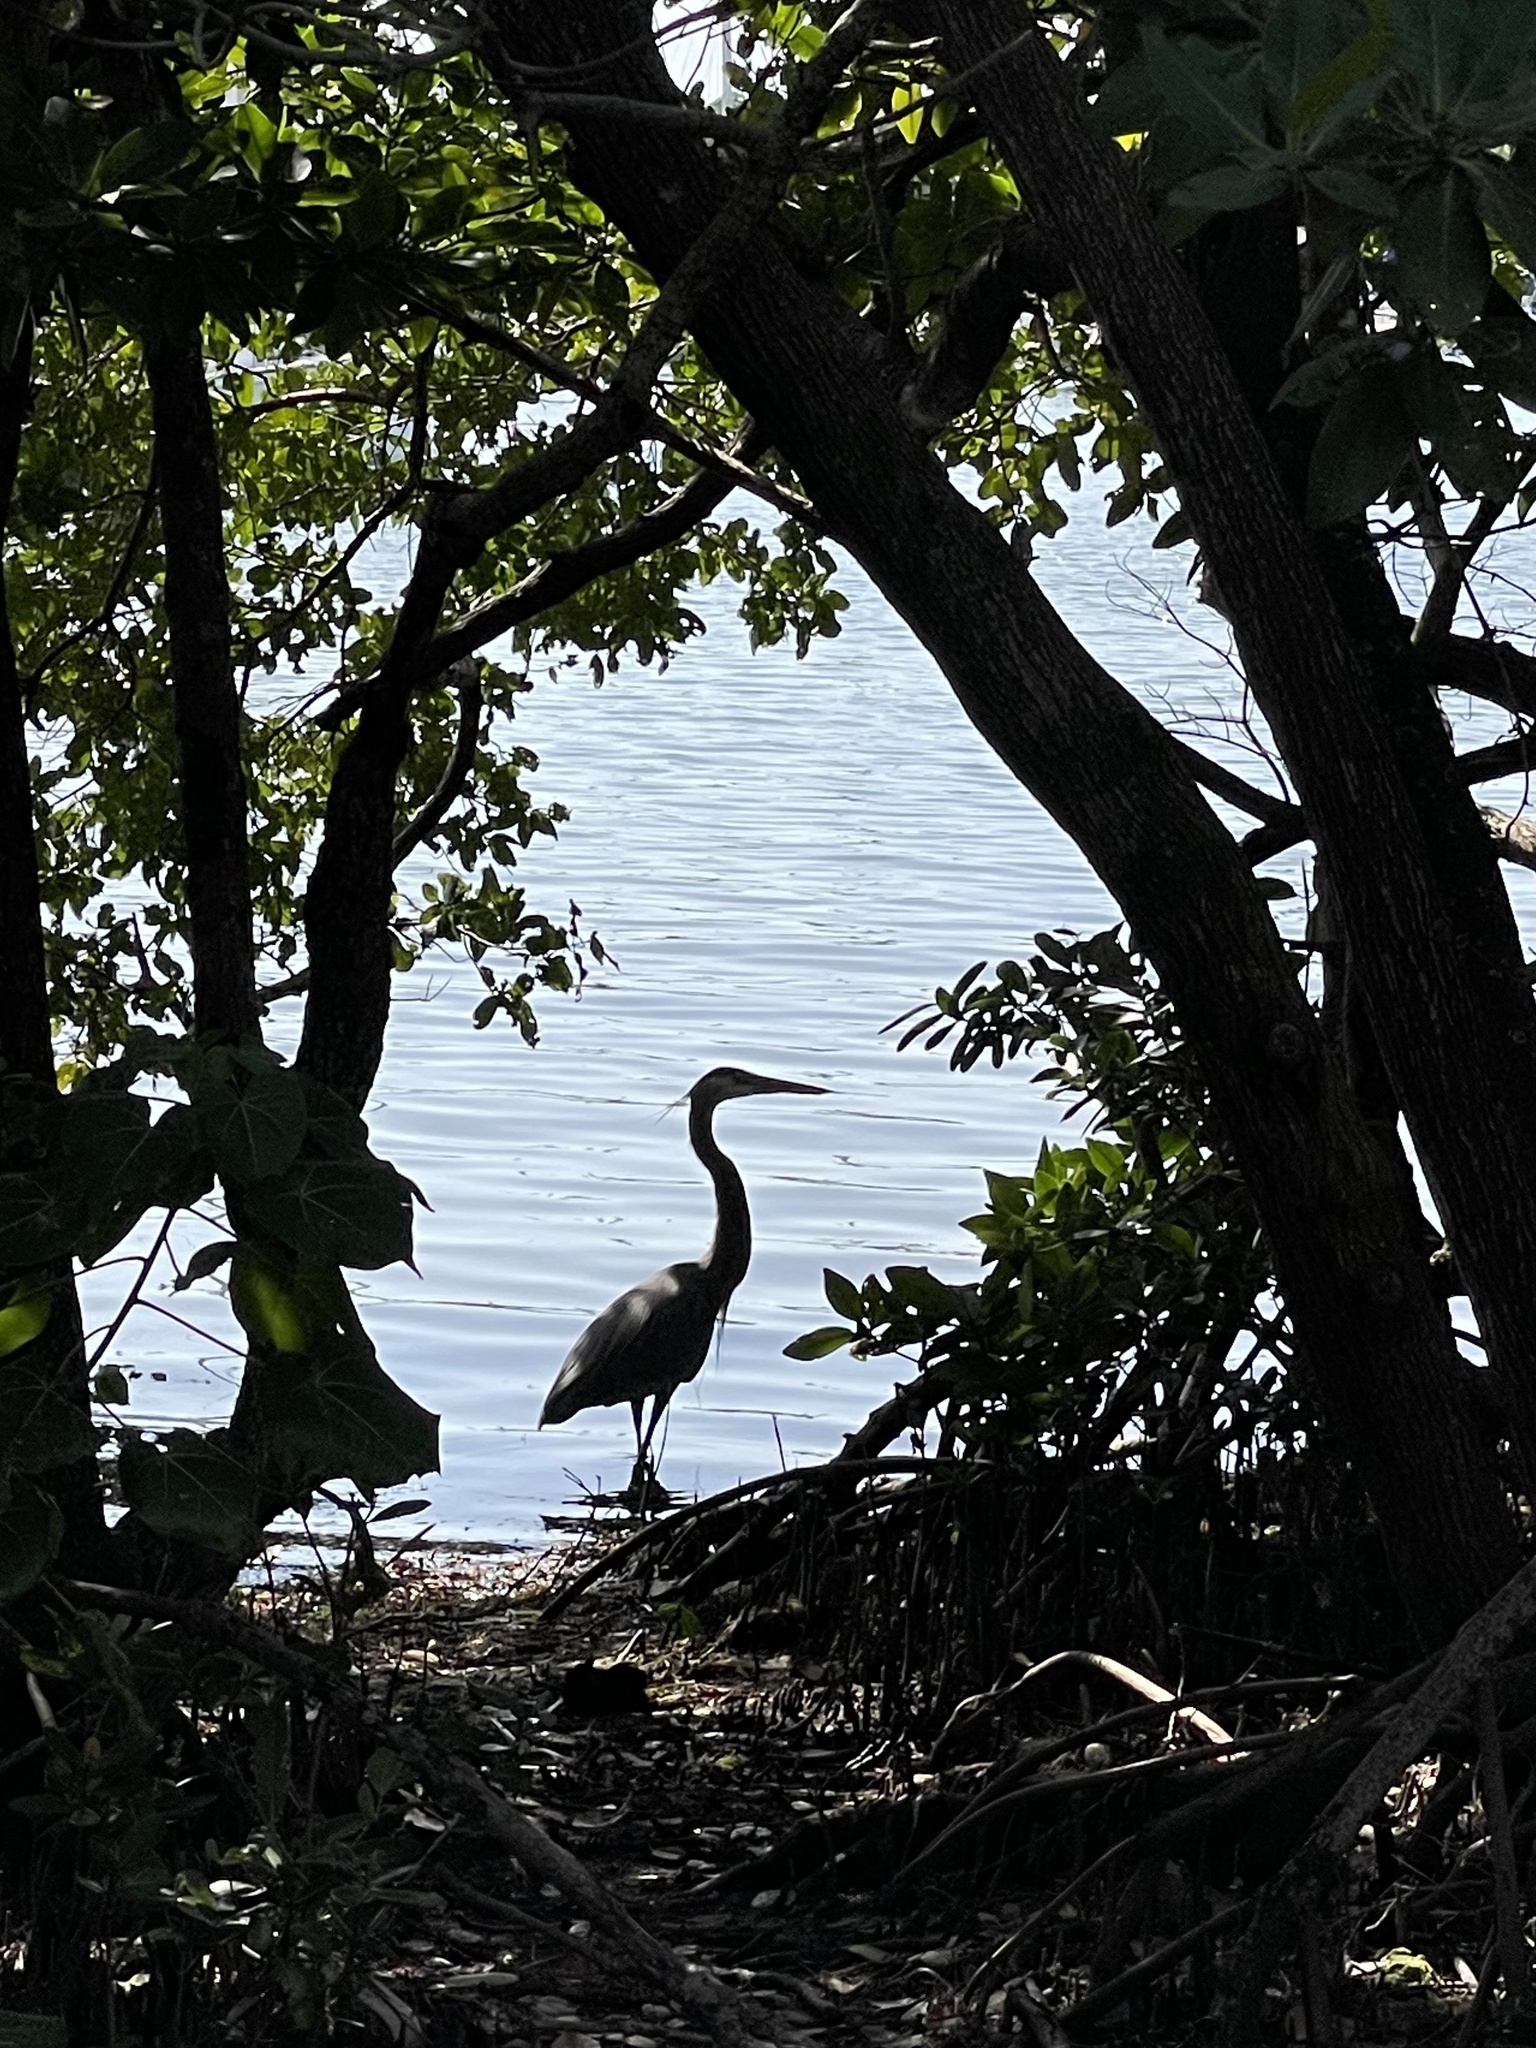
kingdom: Animalia
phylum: Chordata
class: Aves
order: Pelecaniformes
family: Ardeidae
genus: Ardea
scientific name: Ardea herodias
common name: Great blue heron
